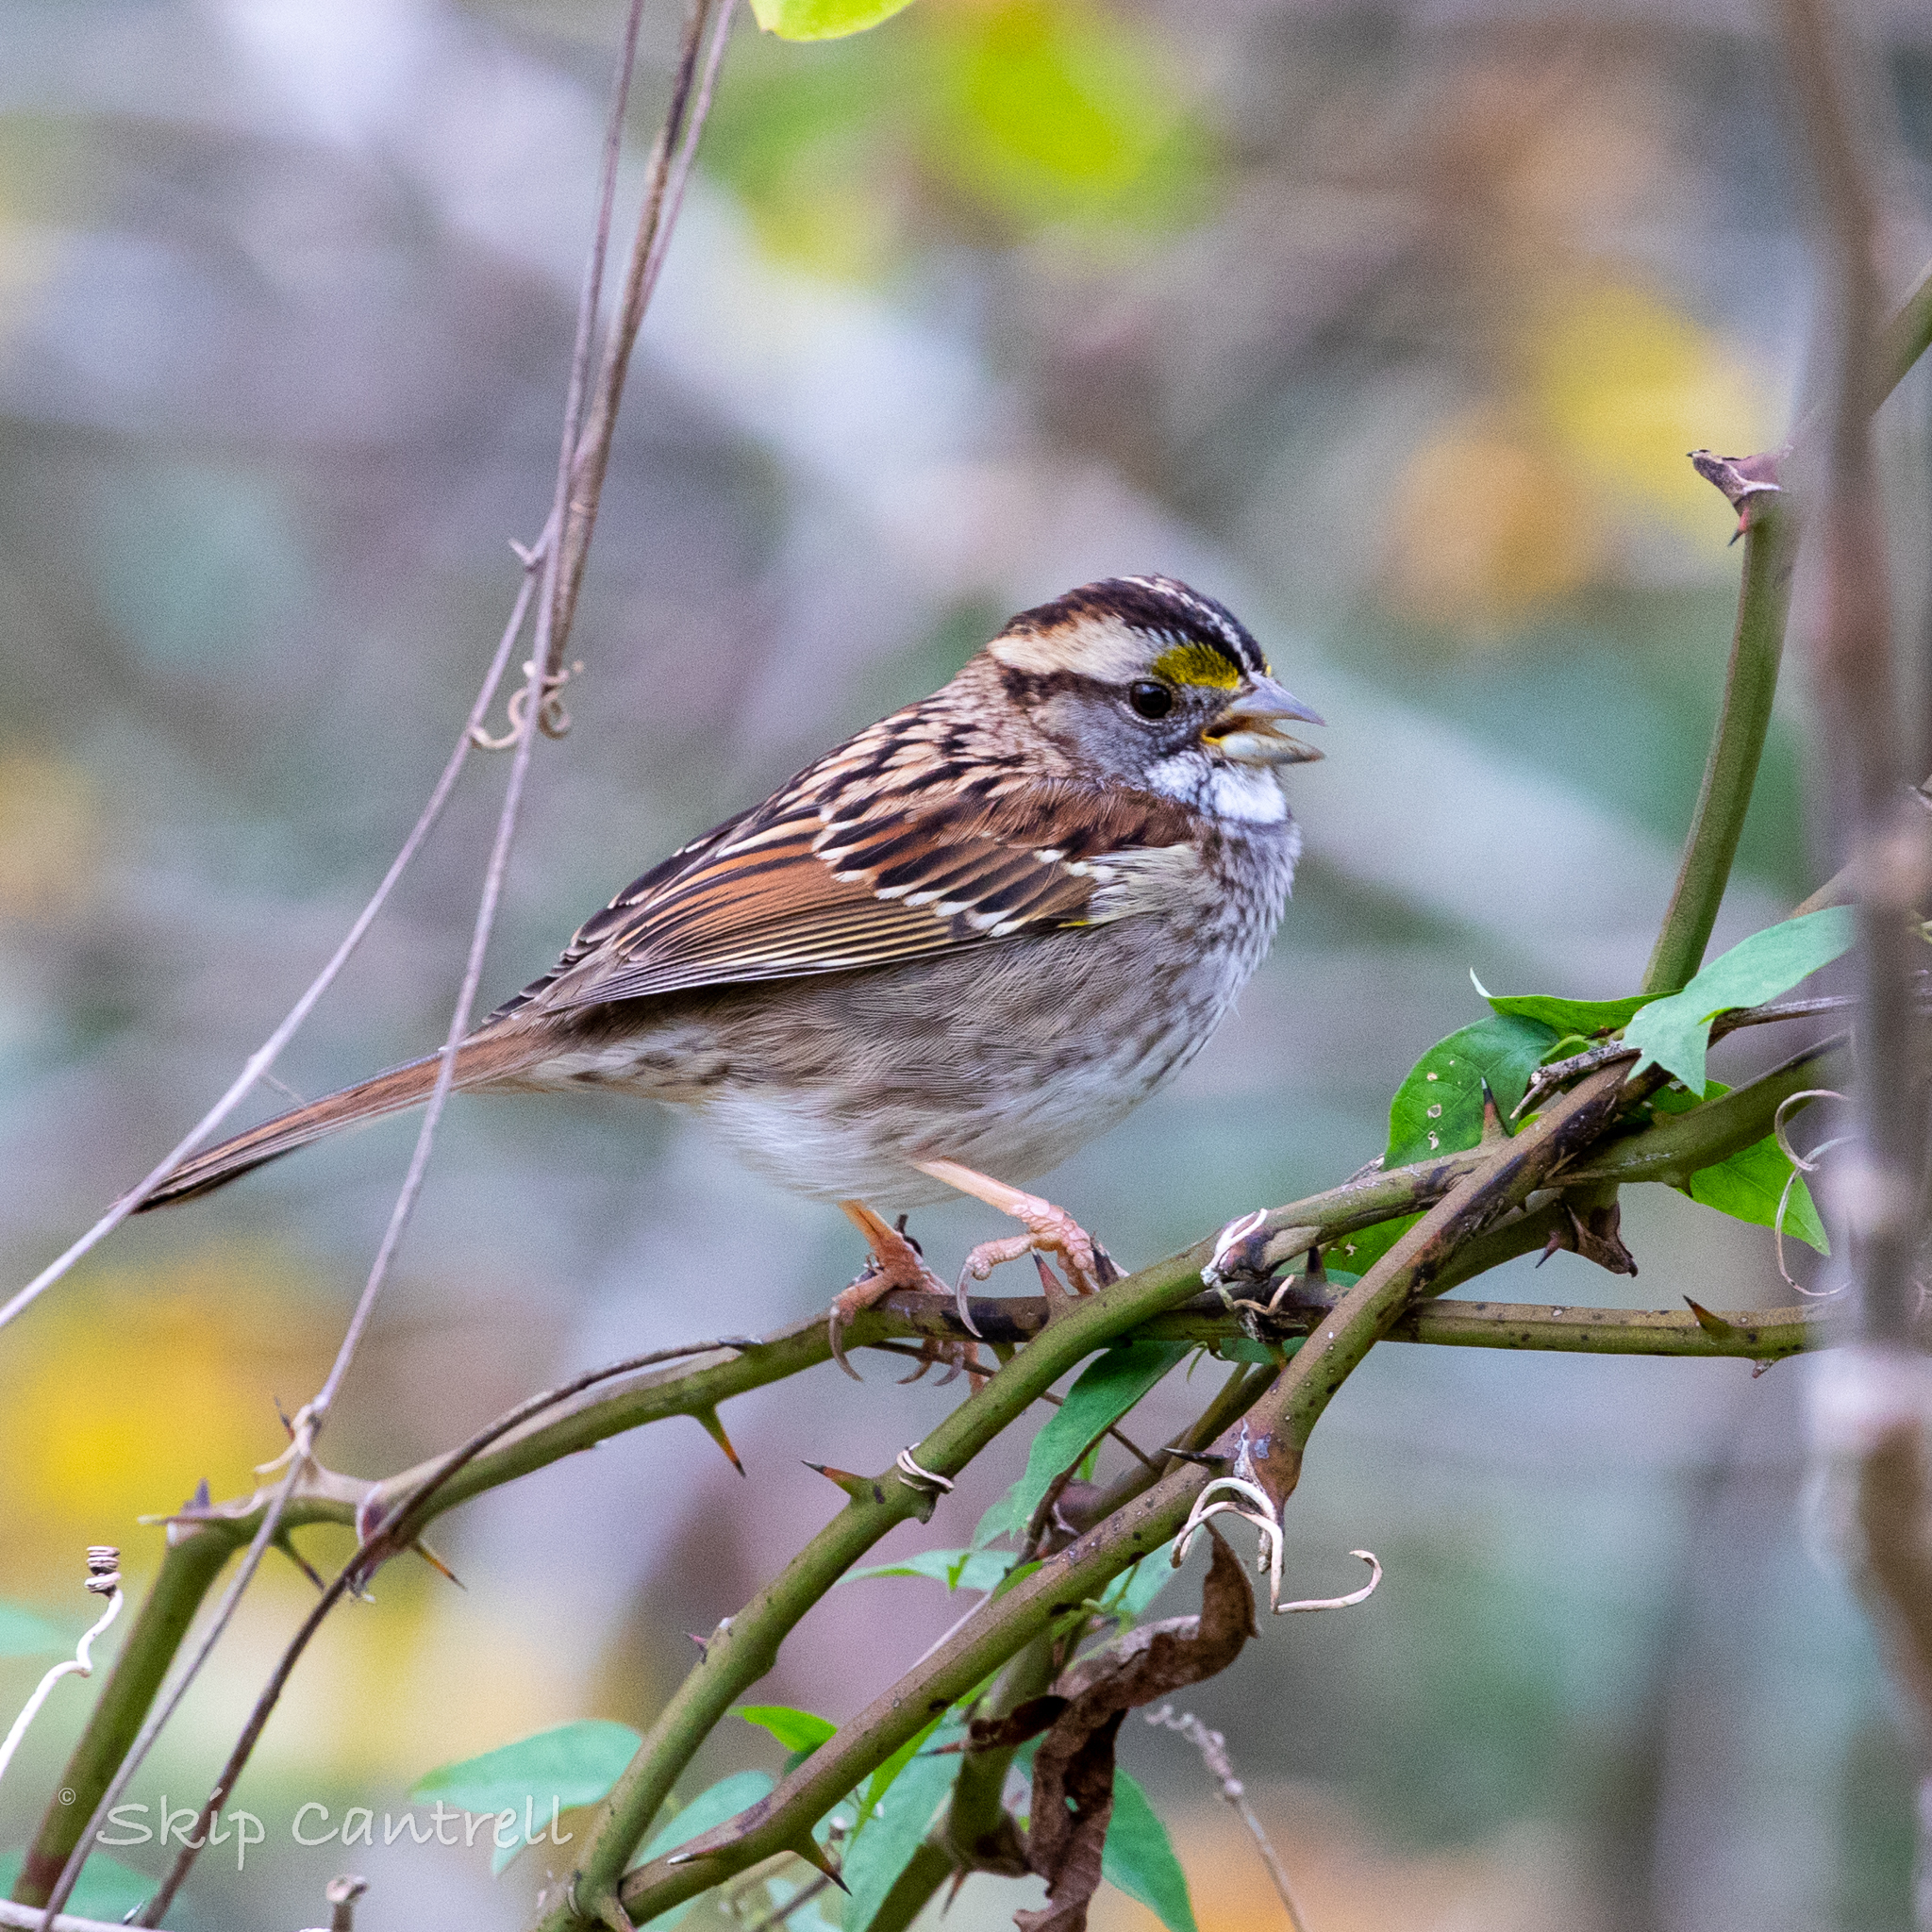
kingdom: Animalia
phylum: Chordata
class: Aves
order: Passeriformes
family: Passerellidae
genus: Zonotrichia
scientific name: Zonotrichia albicollis
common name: White-throated sparrow
